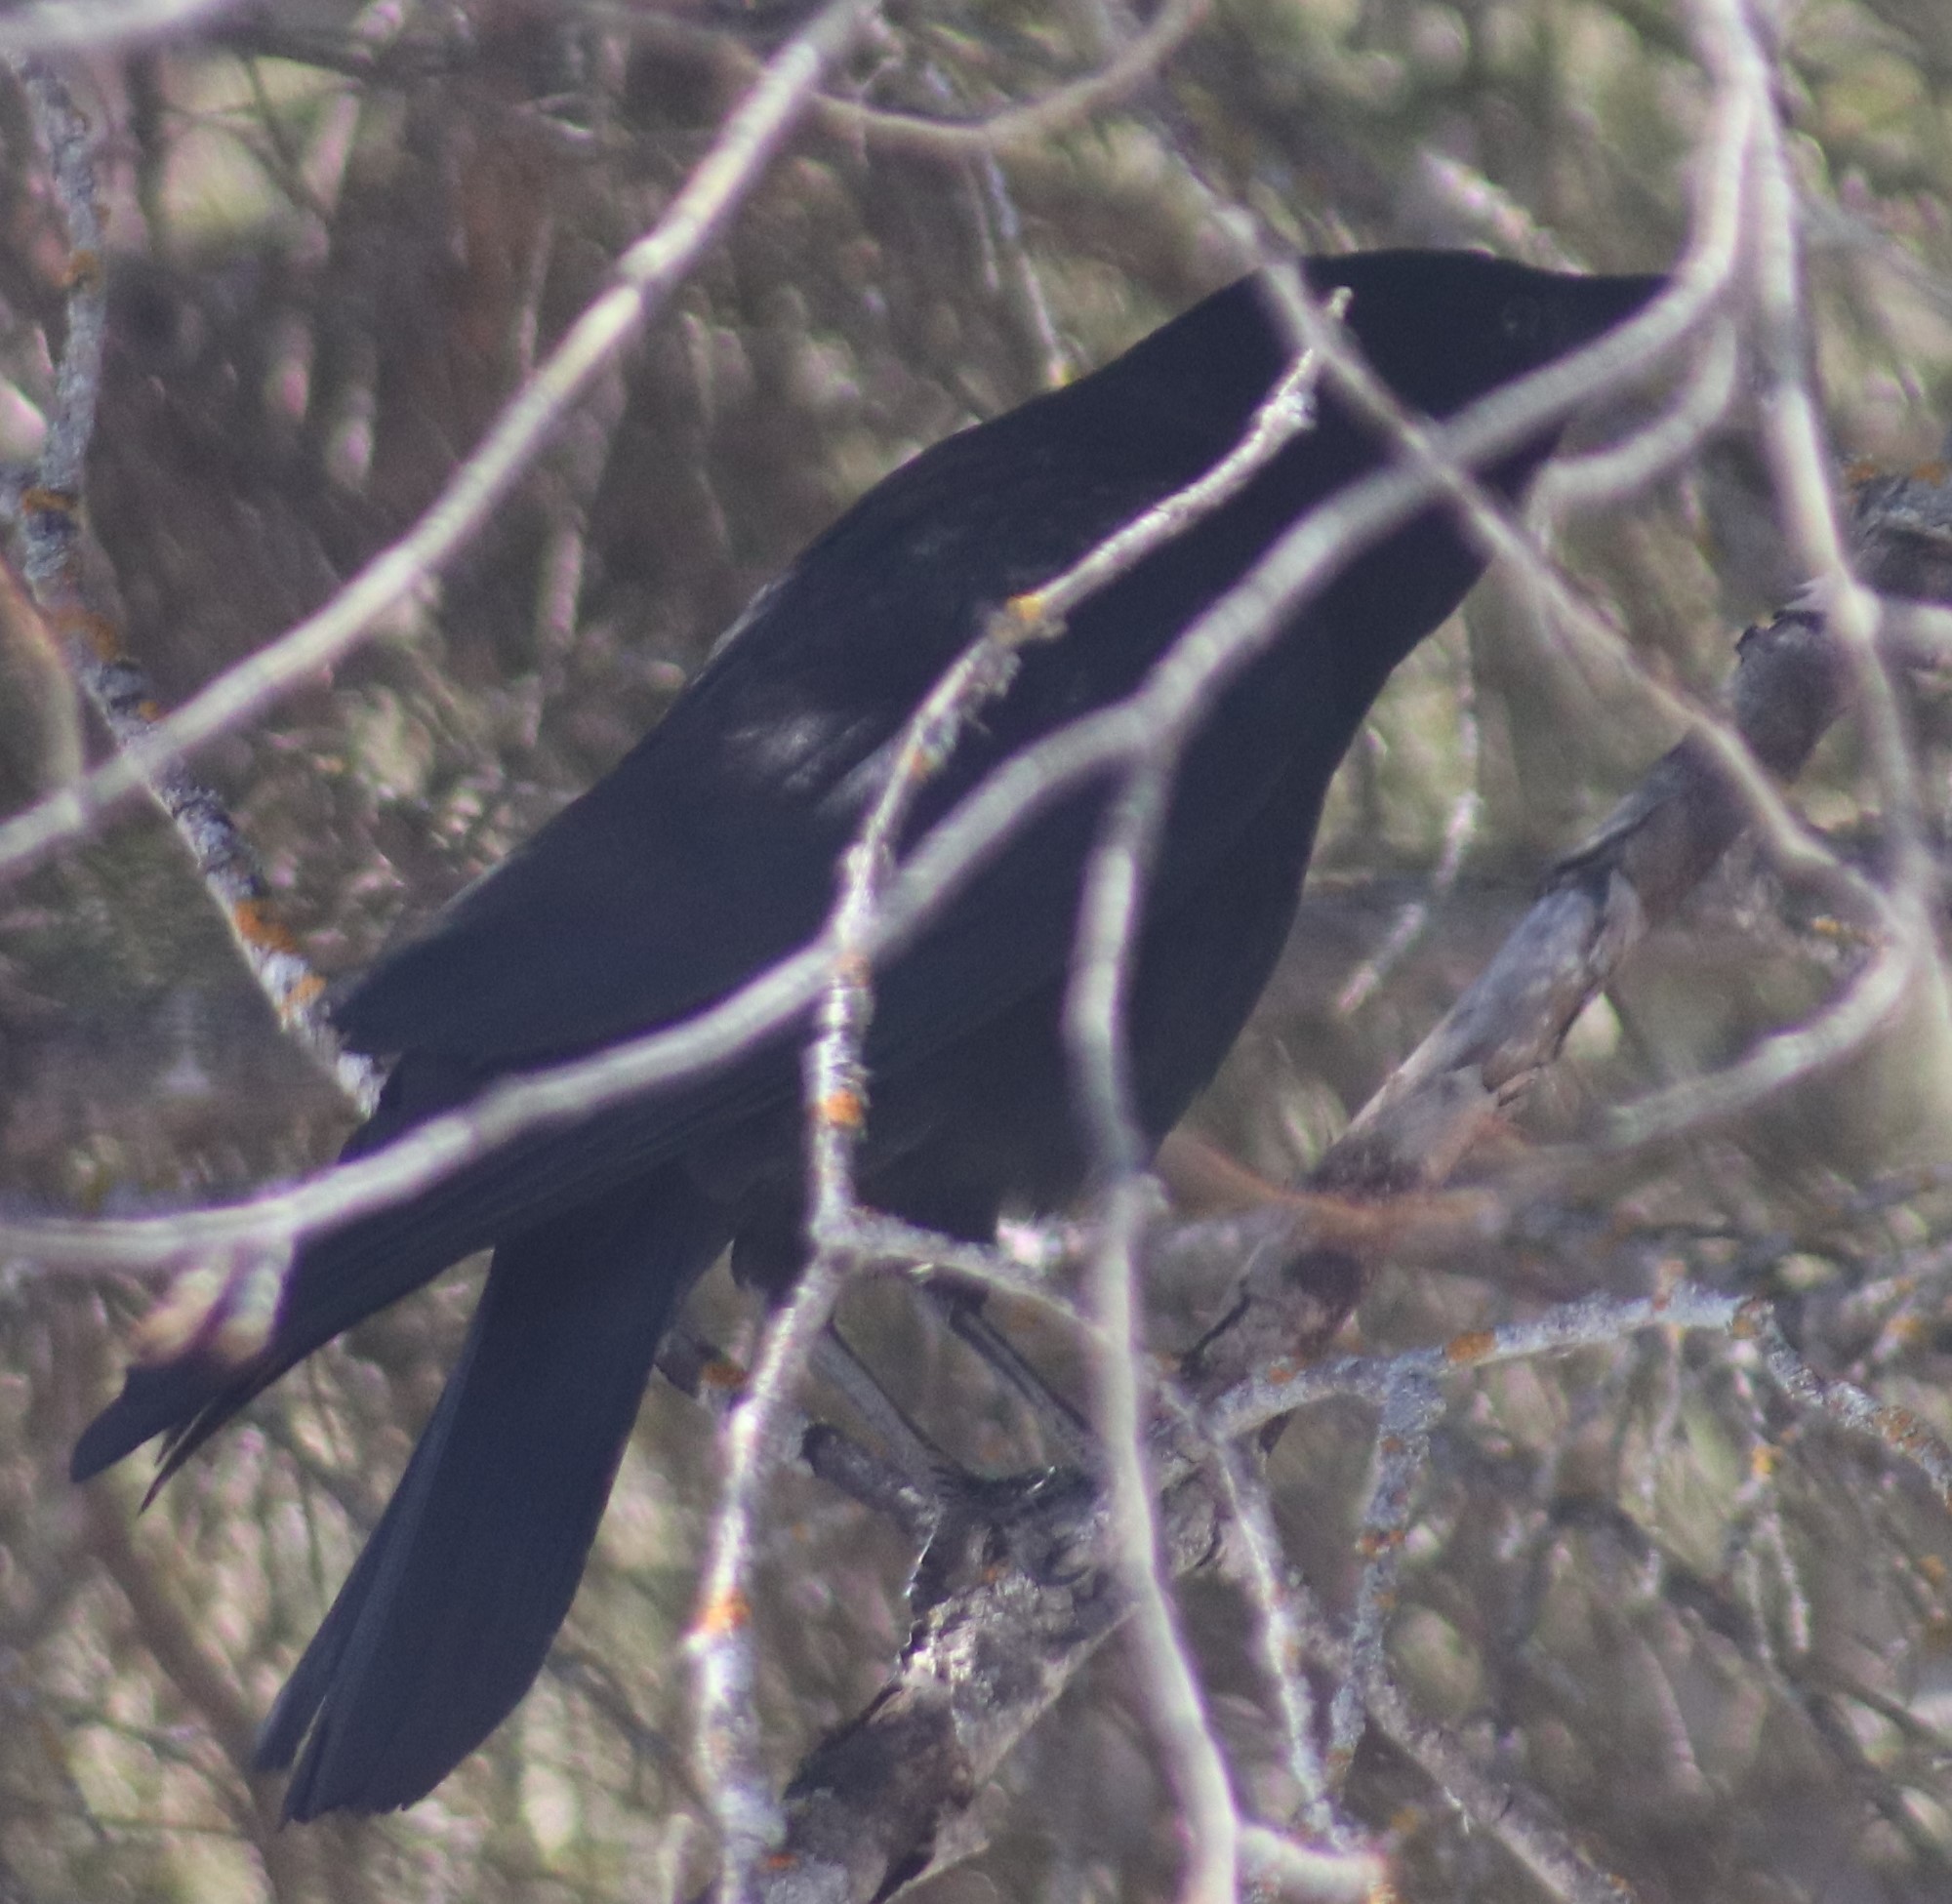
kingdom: Animalia
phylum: Chordata
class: Aves
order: Passeriformes
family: Corvidae
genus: Corvus
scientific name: Corvus brachyrhynchos
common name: American crow
